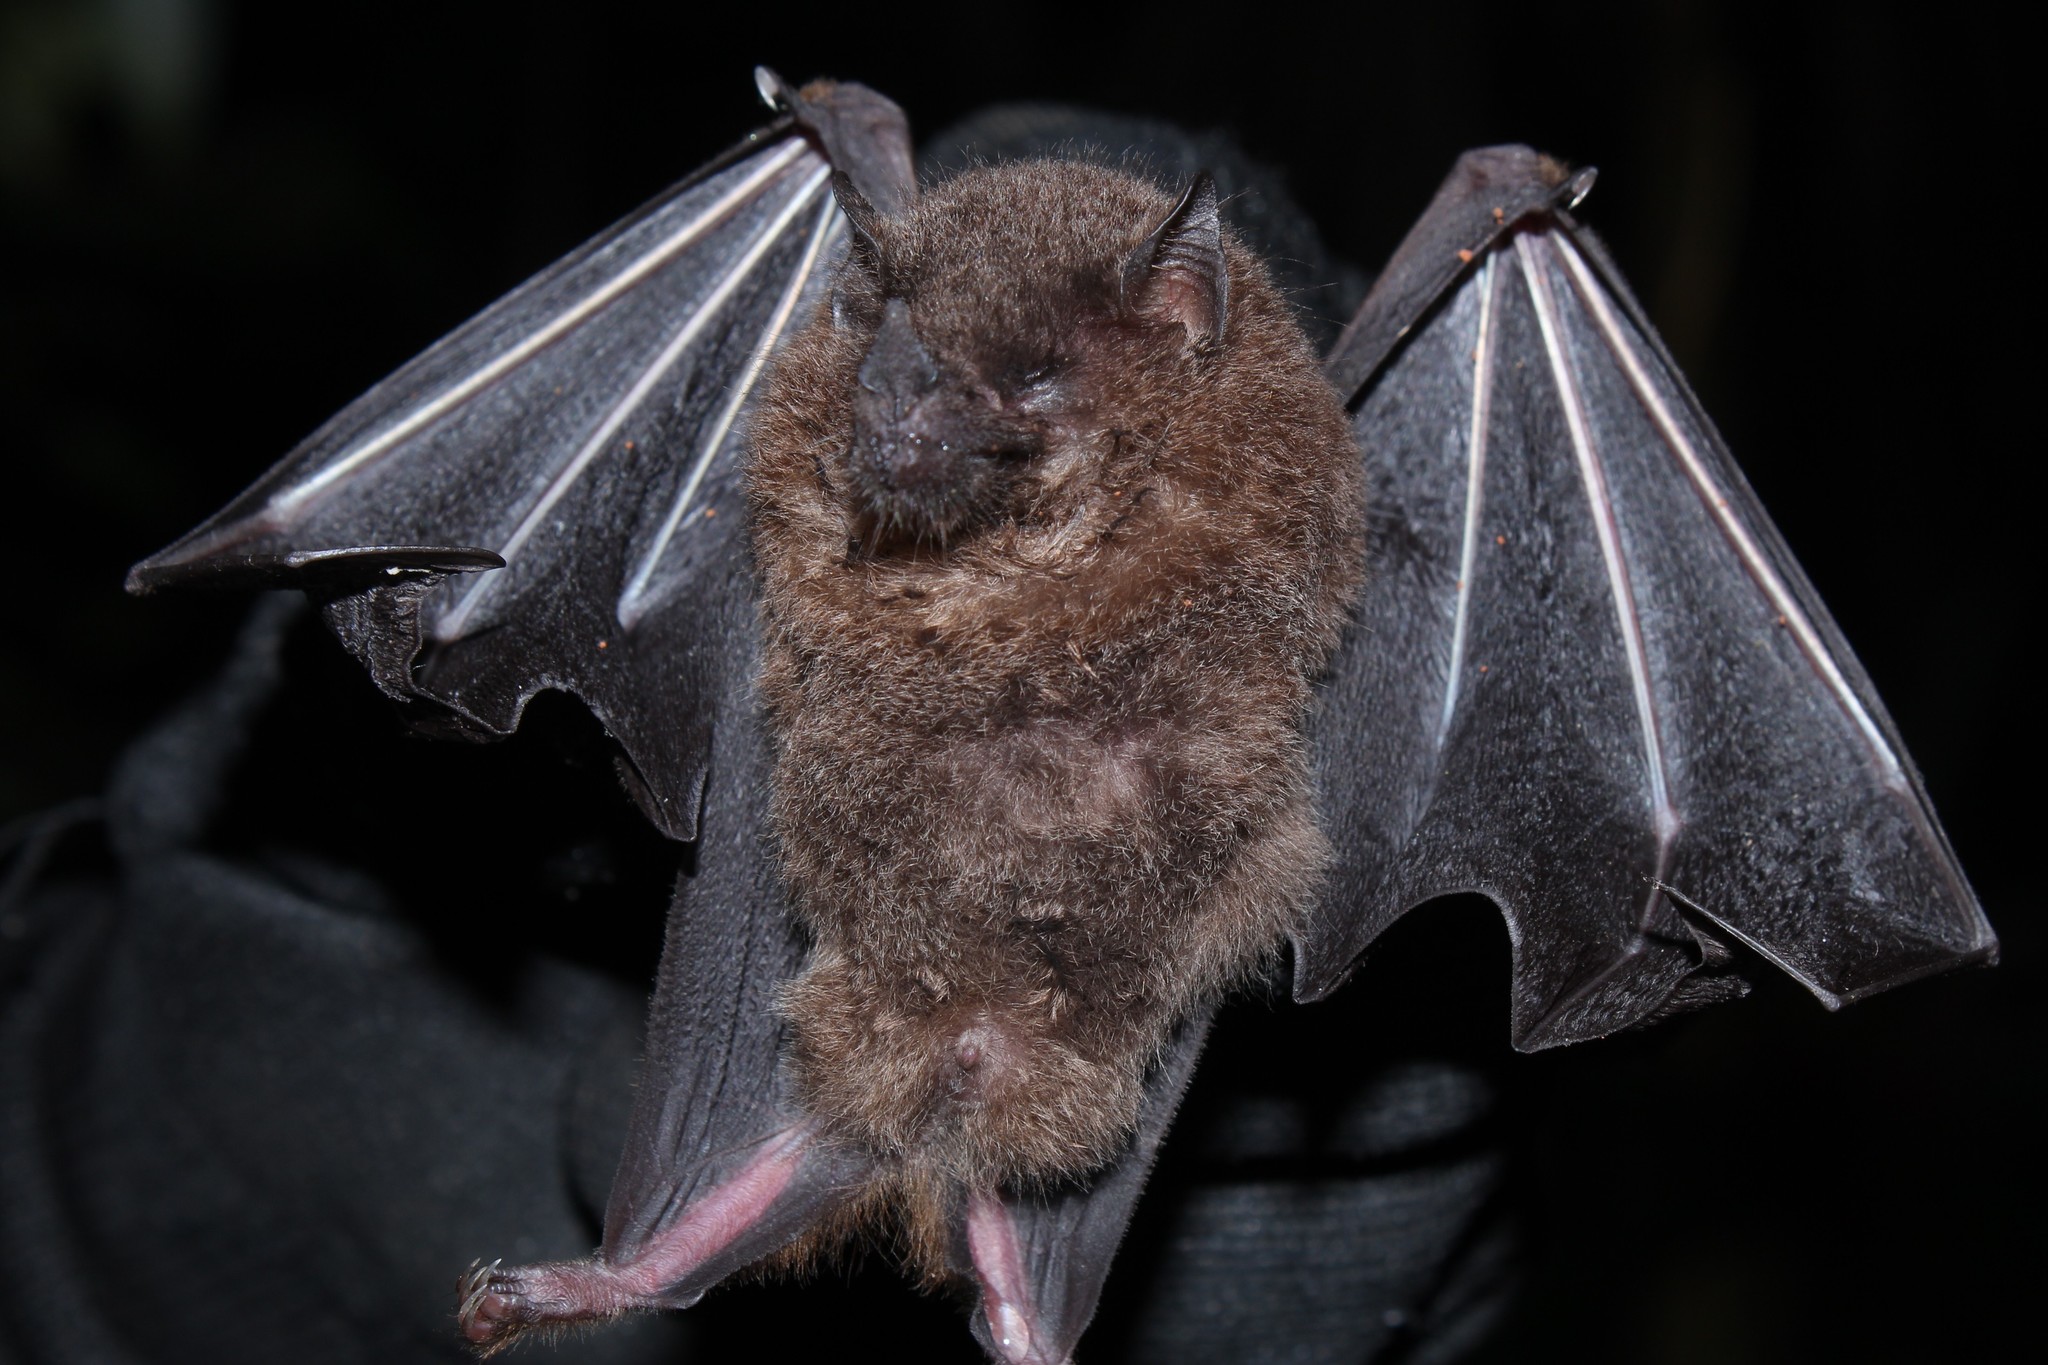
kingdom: Animalia
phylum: Chordata
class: Mammalia
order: Chiroptera
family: Phyllostomidae
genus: Anoura
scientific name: Anoura caudifer
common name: Tailed tailless bat
